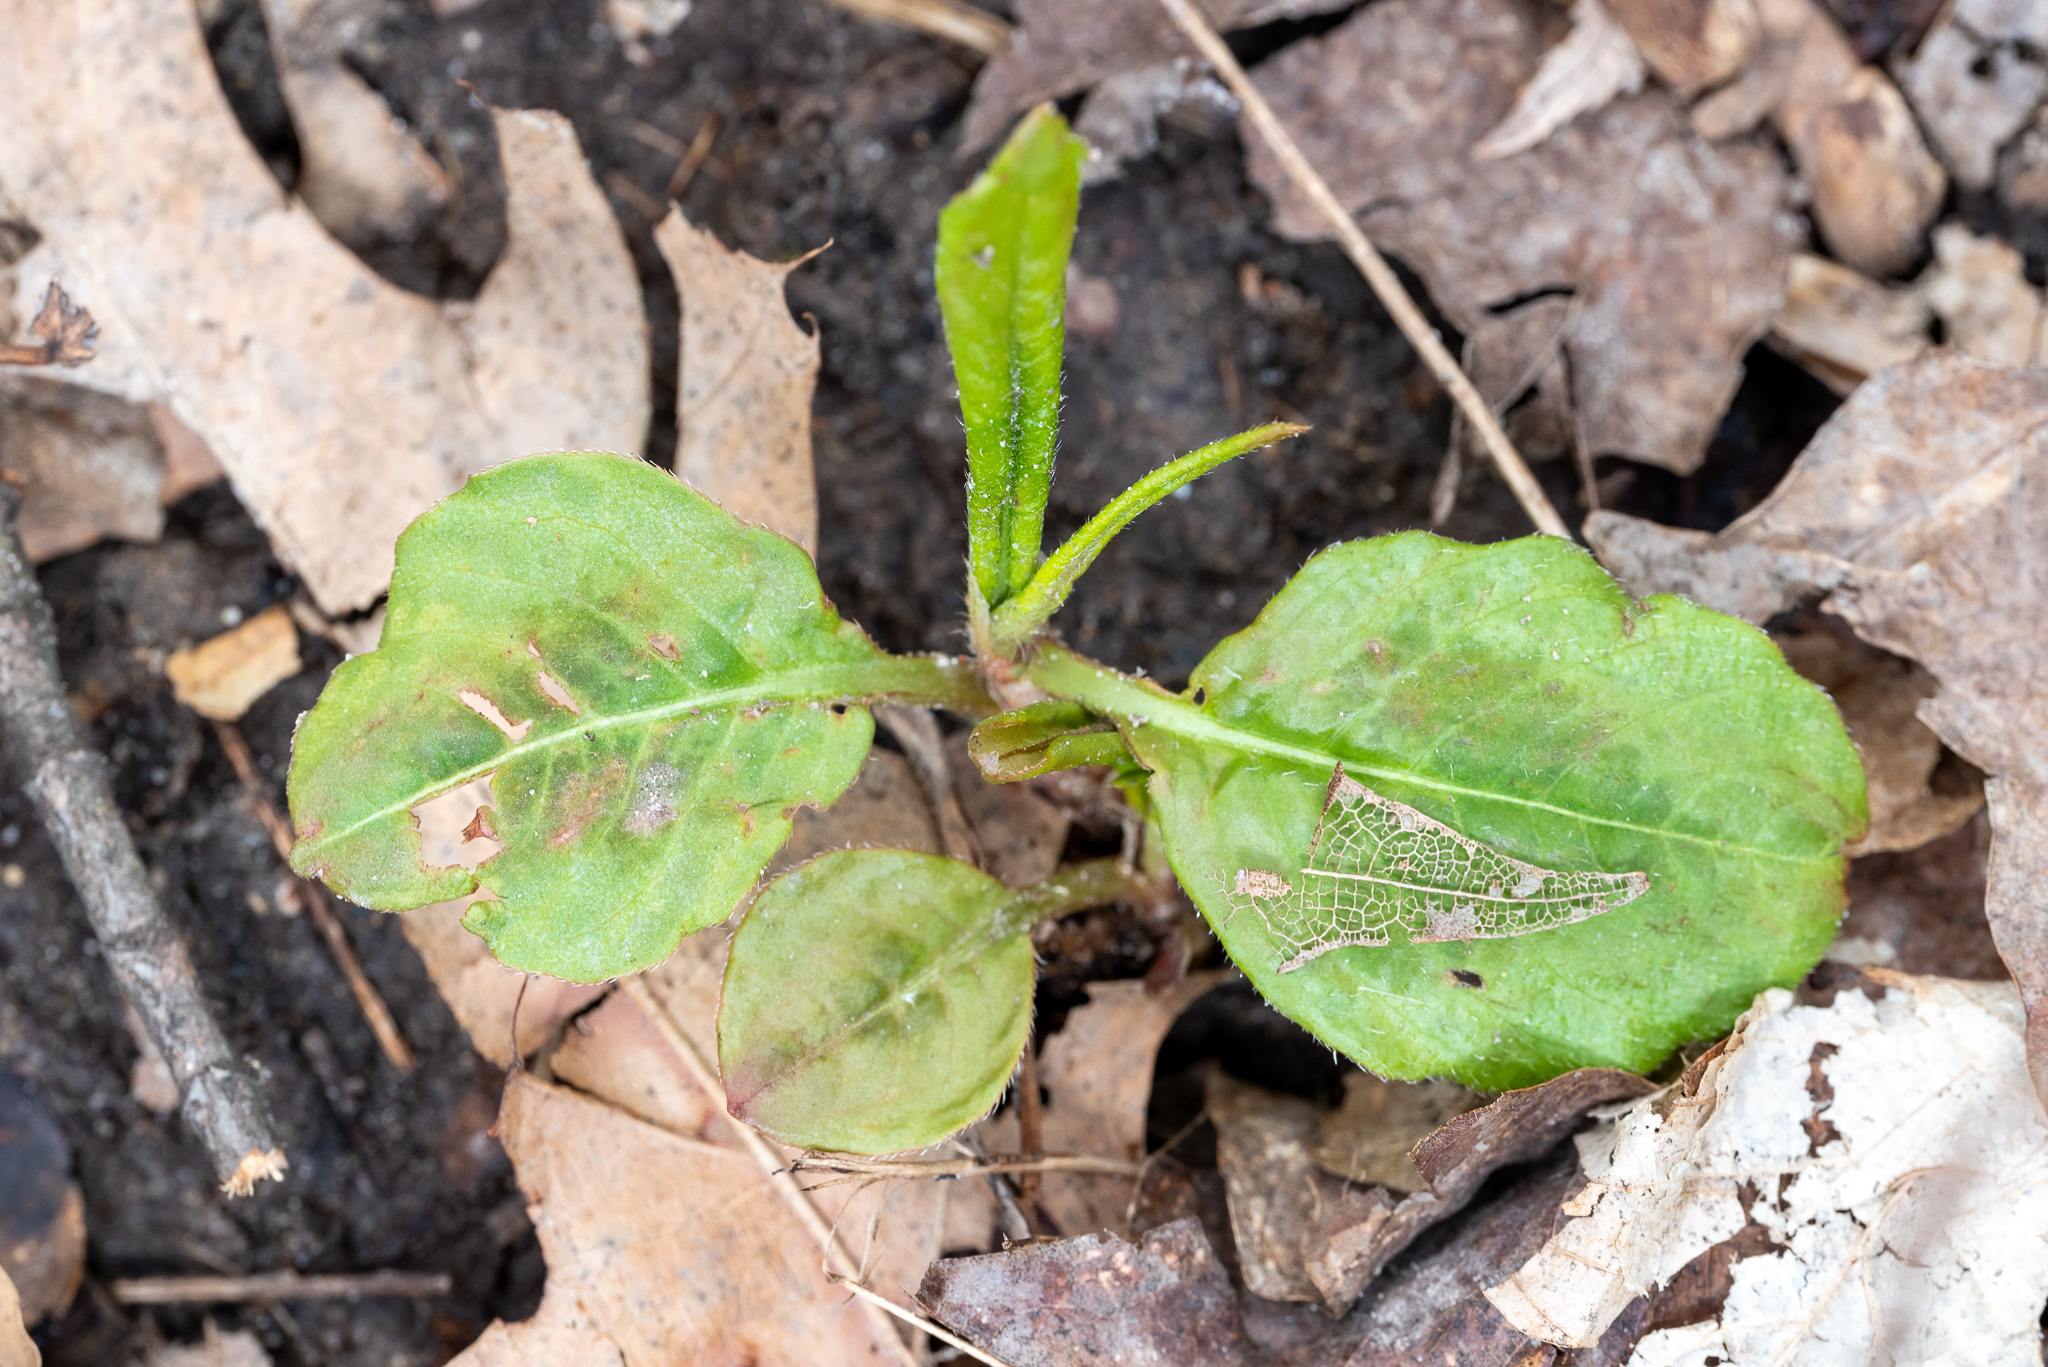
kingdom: Plantae
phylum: Tracheophyta
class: Magnoliopsida
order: Caryophyllales
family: Polygonaceae
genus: Persicaria
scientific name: Persicaria virginiana
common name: Jumpseed
